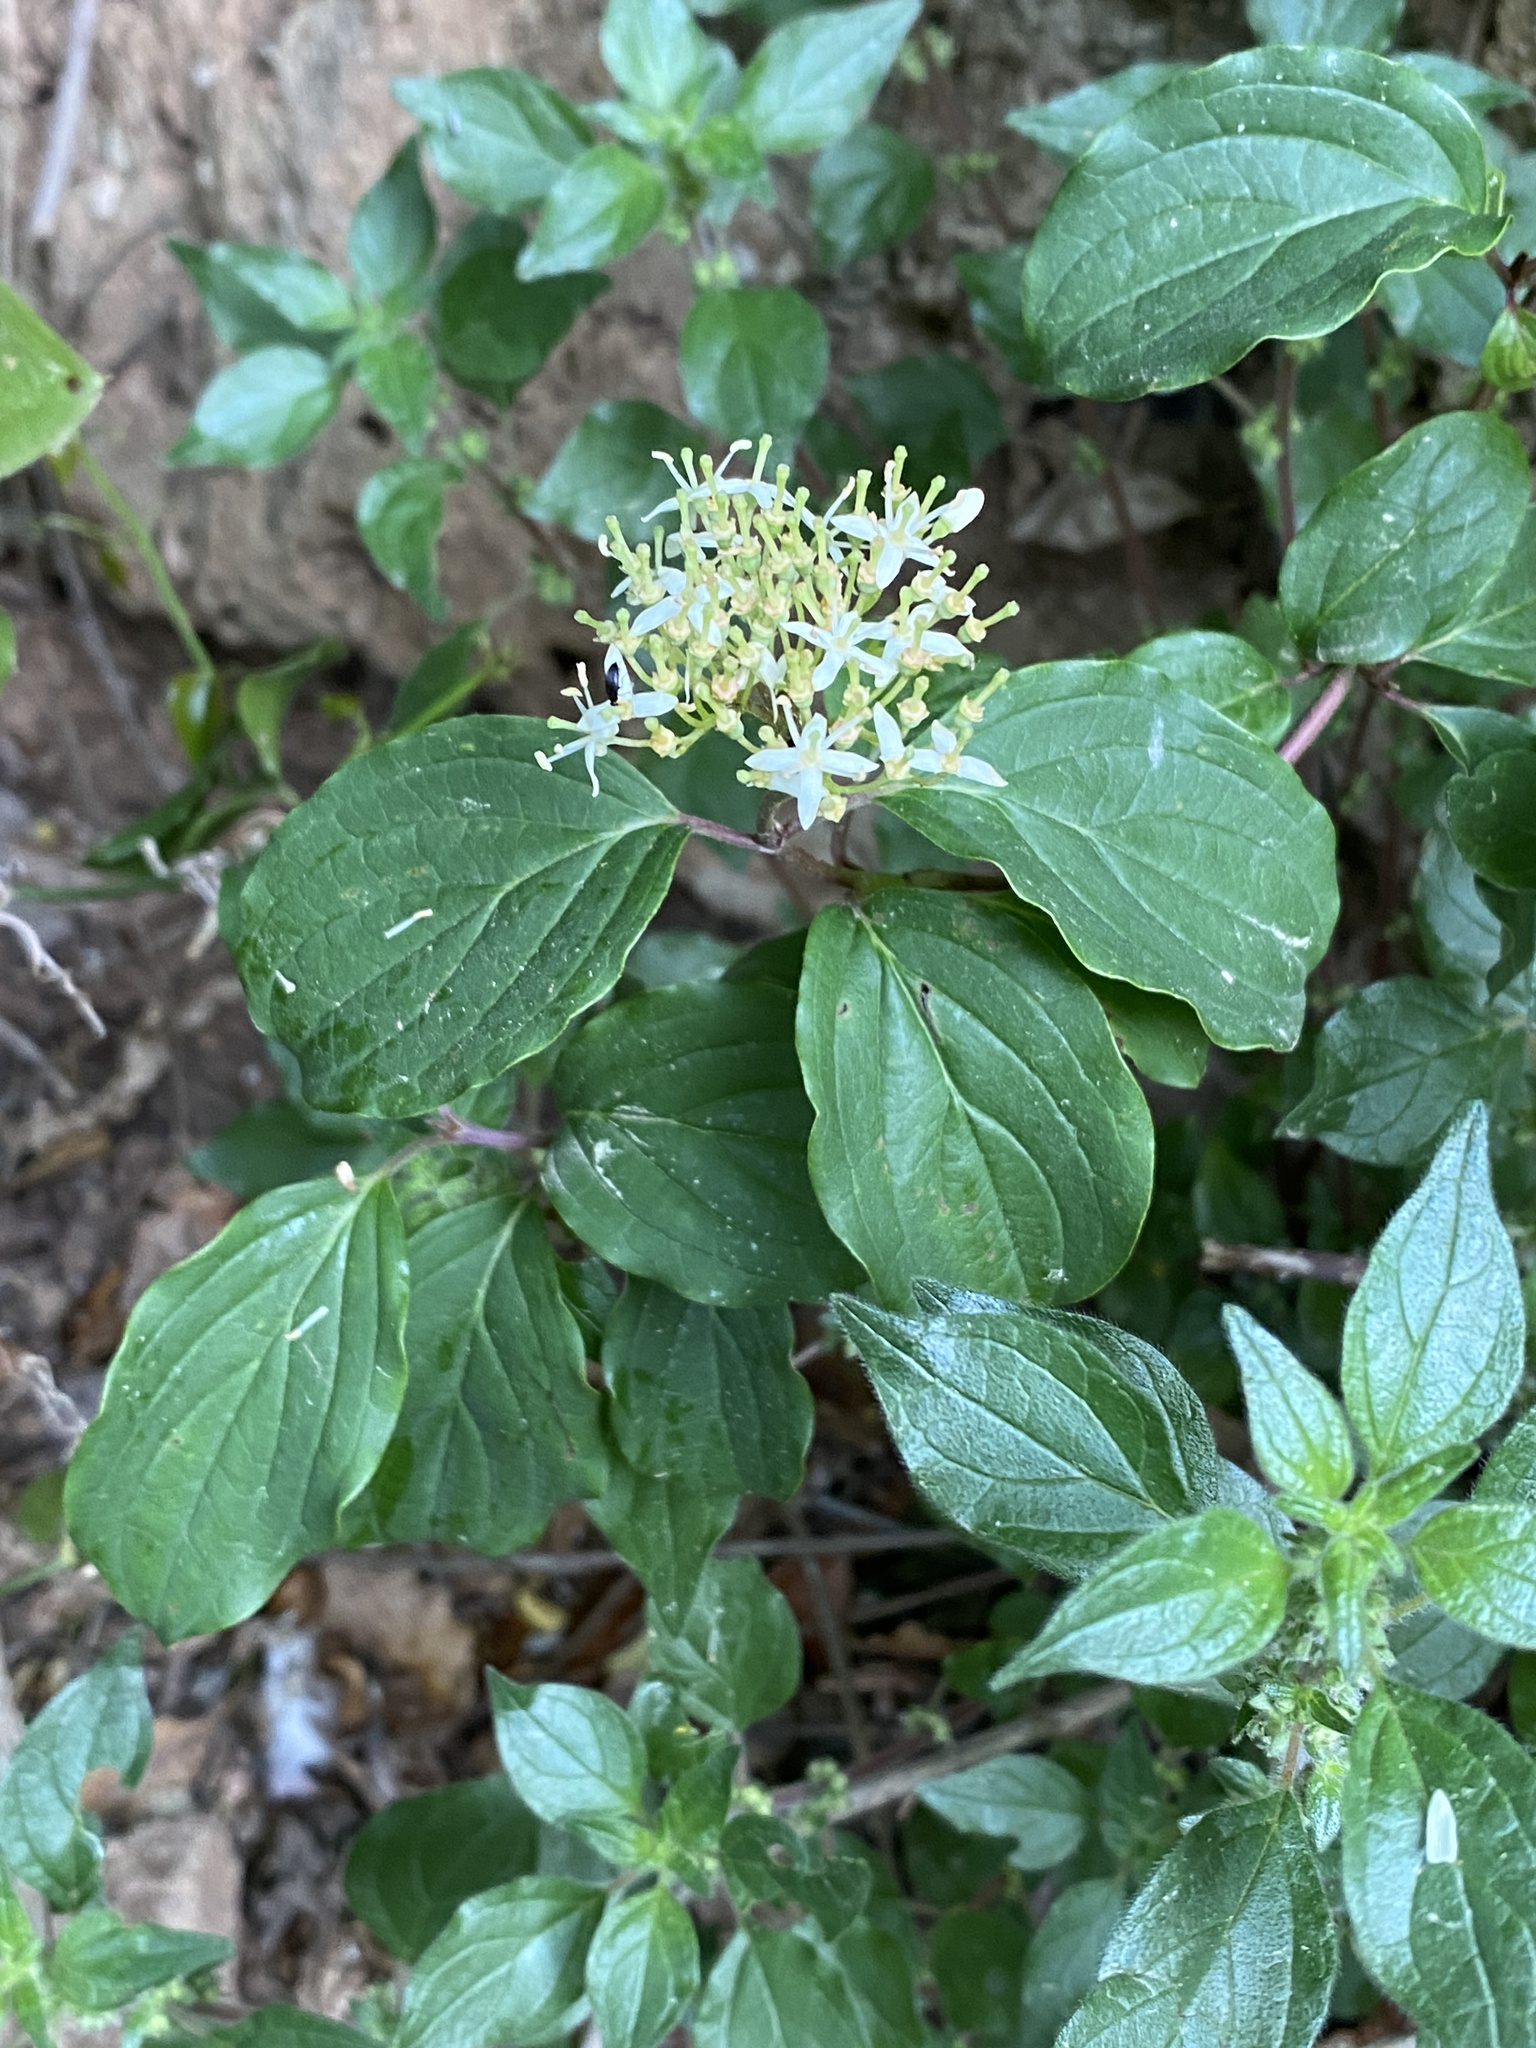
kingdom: Plantae
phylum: Tracheophyta
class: Magnoliopsida
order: Cornales
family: Cornaceae
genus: Cornus
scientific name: Cornus sanguinea
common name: Dogwood
